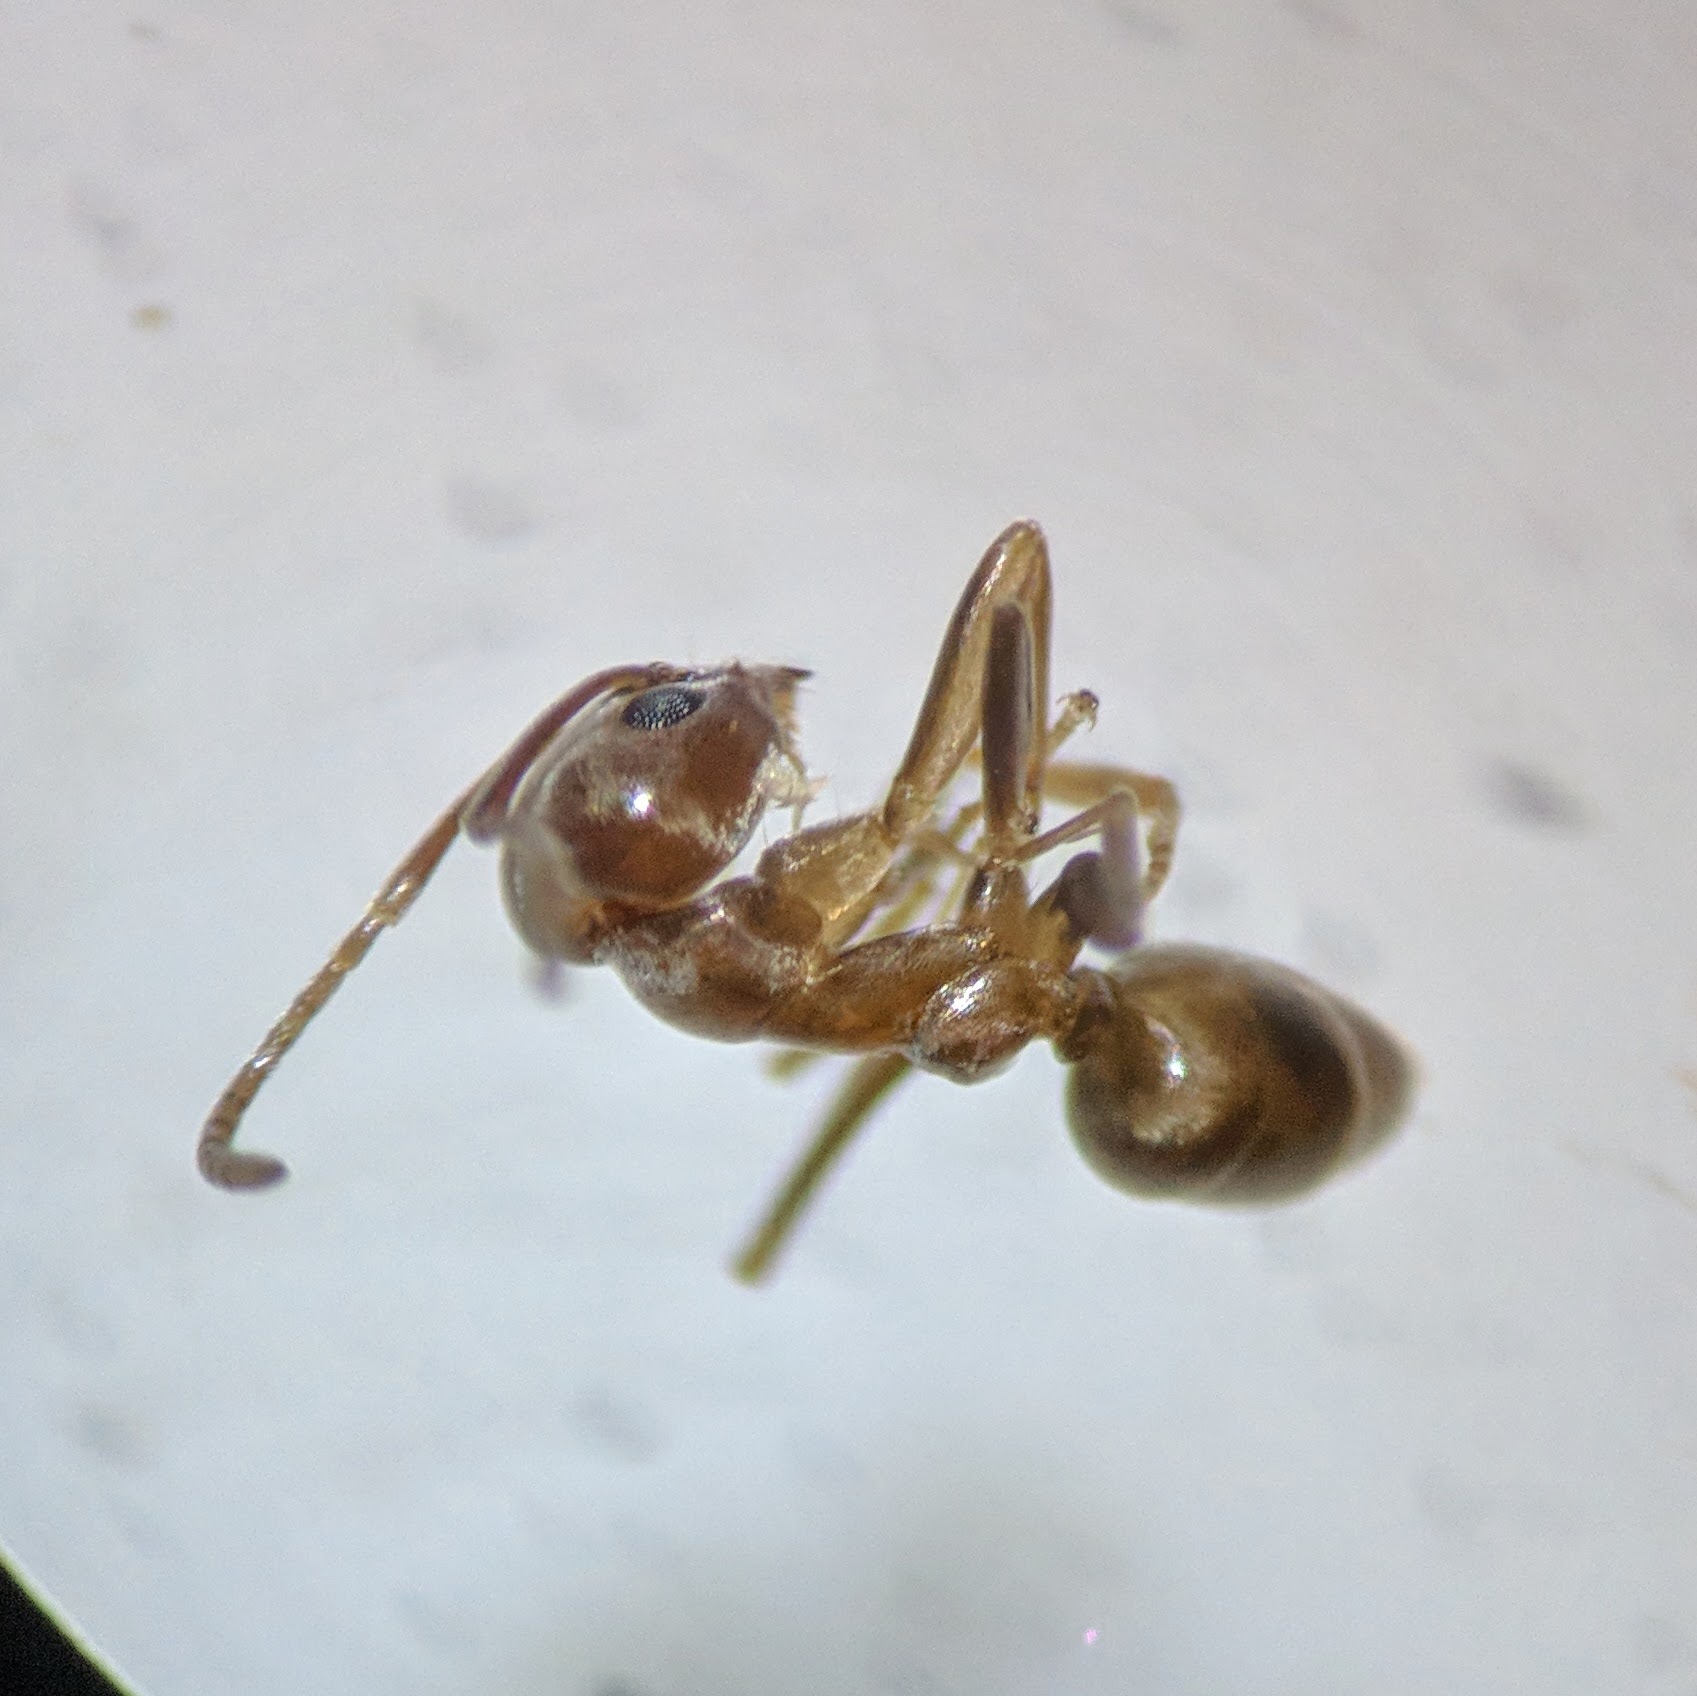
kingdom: Animalia
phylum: Arthropoda
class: Insecta
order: Hymenoptera
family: Formicidae
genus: Linepithema
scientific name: Linepithema humile
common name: Argentine ant
